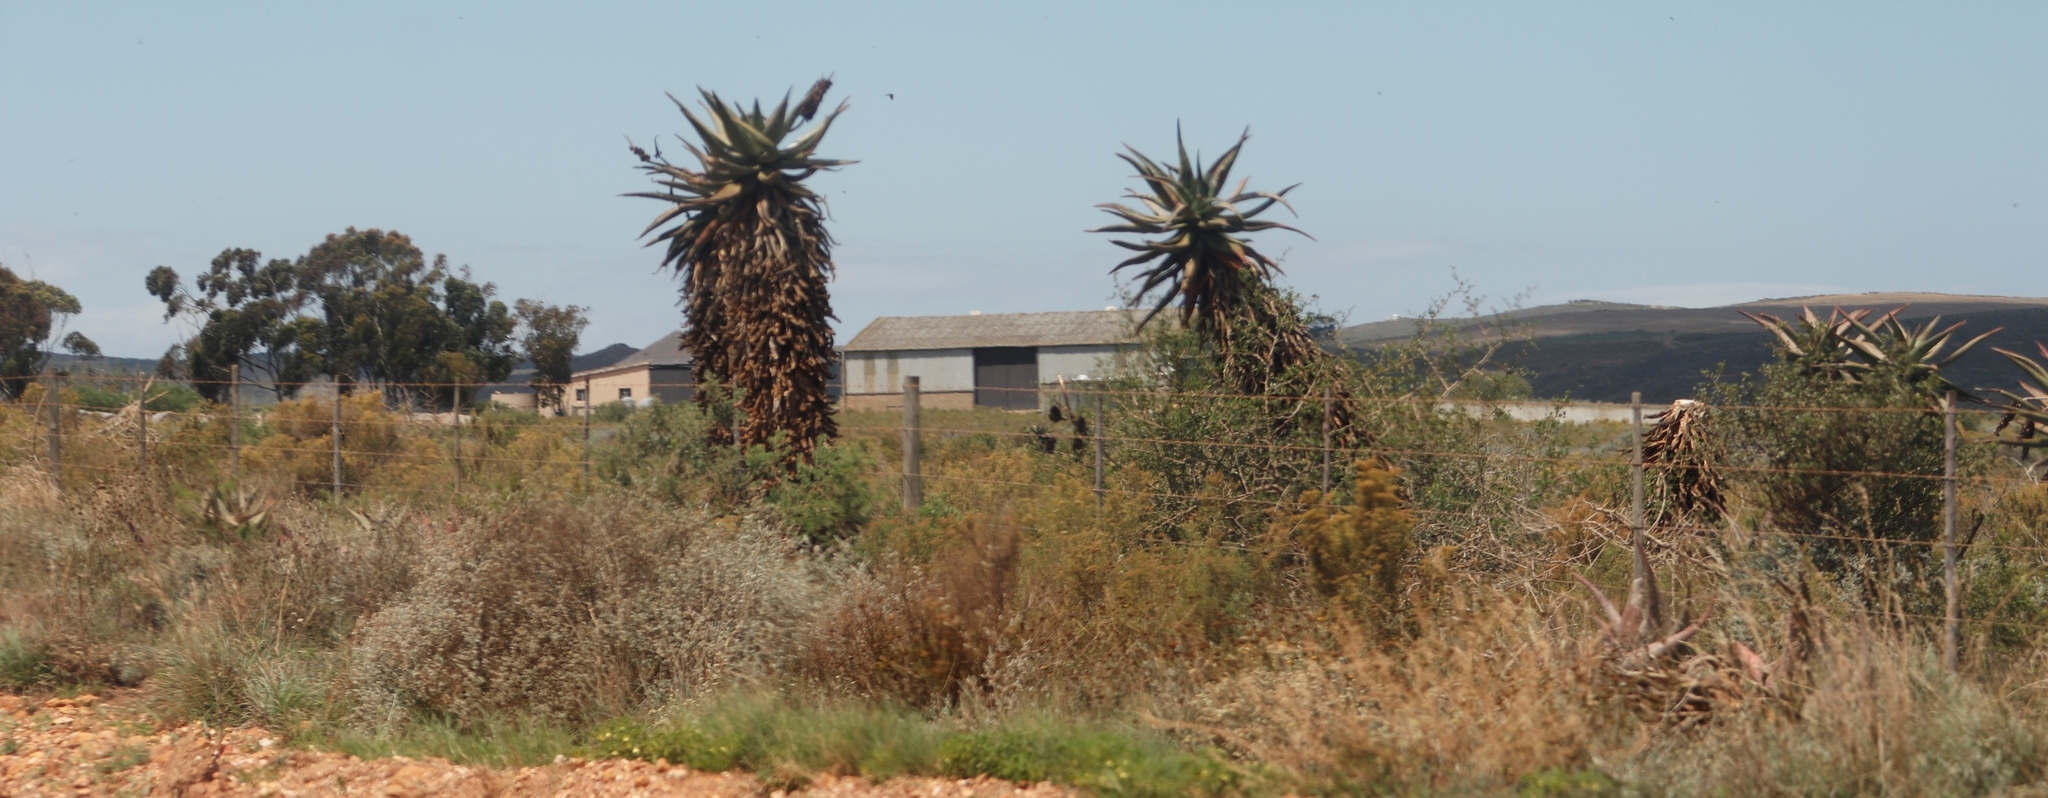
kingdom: Plantae
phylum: Tracheophyta
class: Liliopsida
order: Asparagales
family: Asphodelaceae
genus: Aloe
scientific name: Aloe ferox
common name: Bitter aloe
